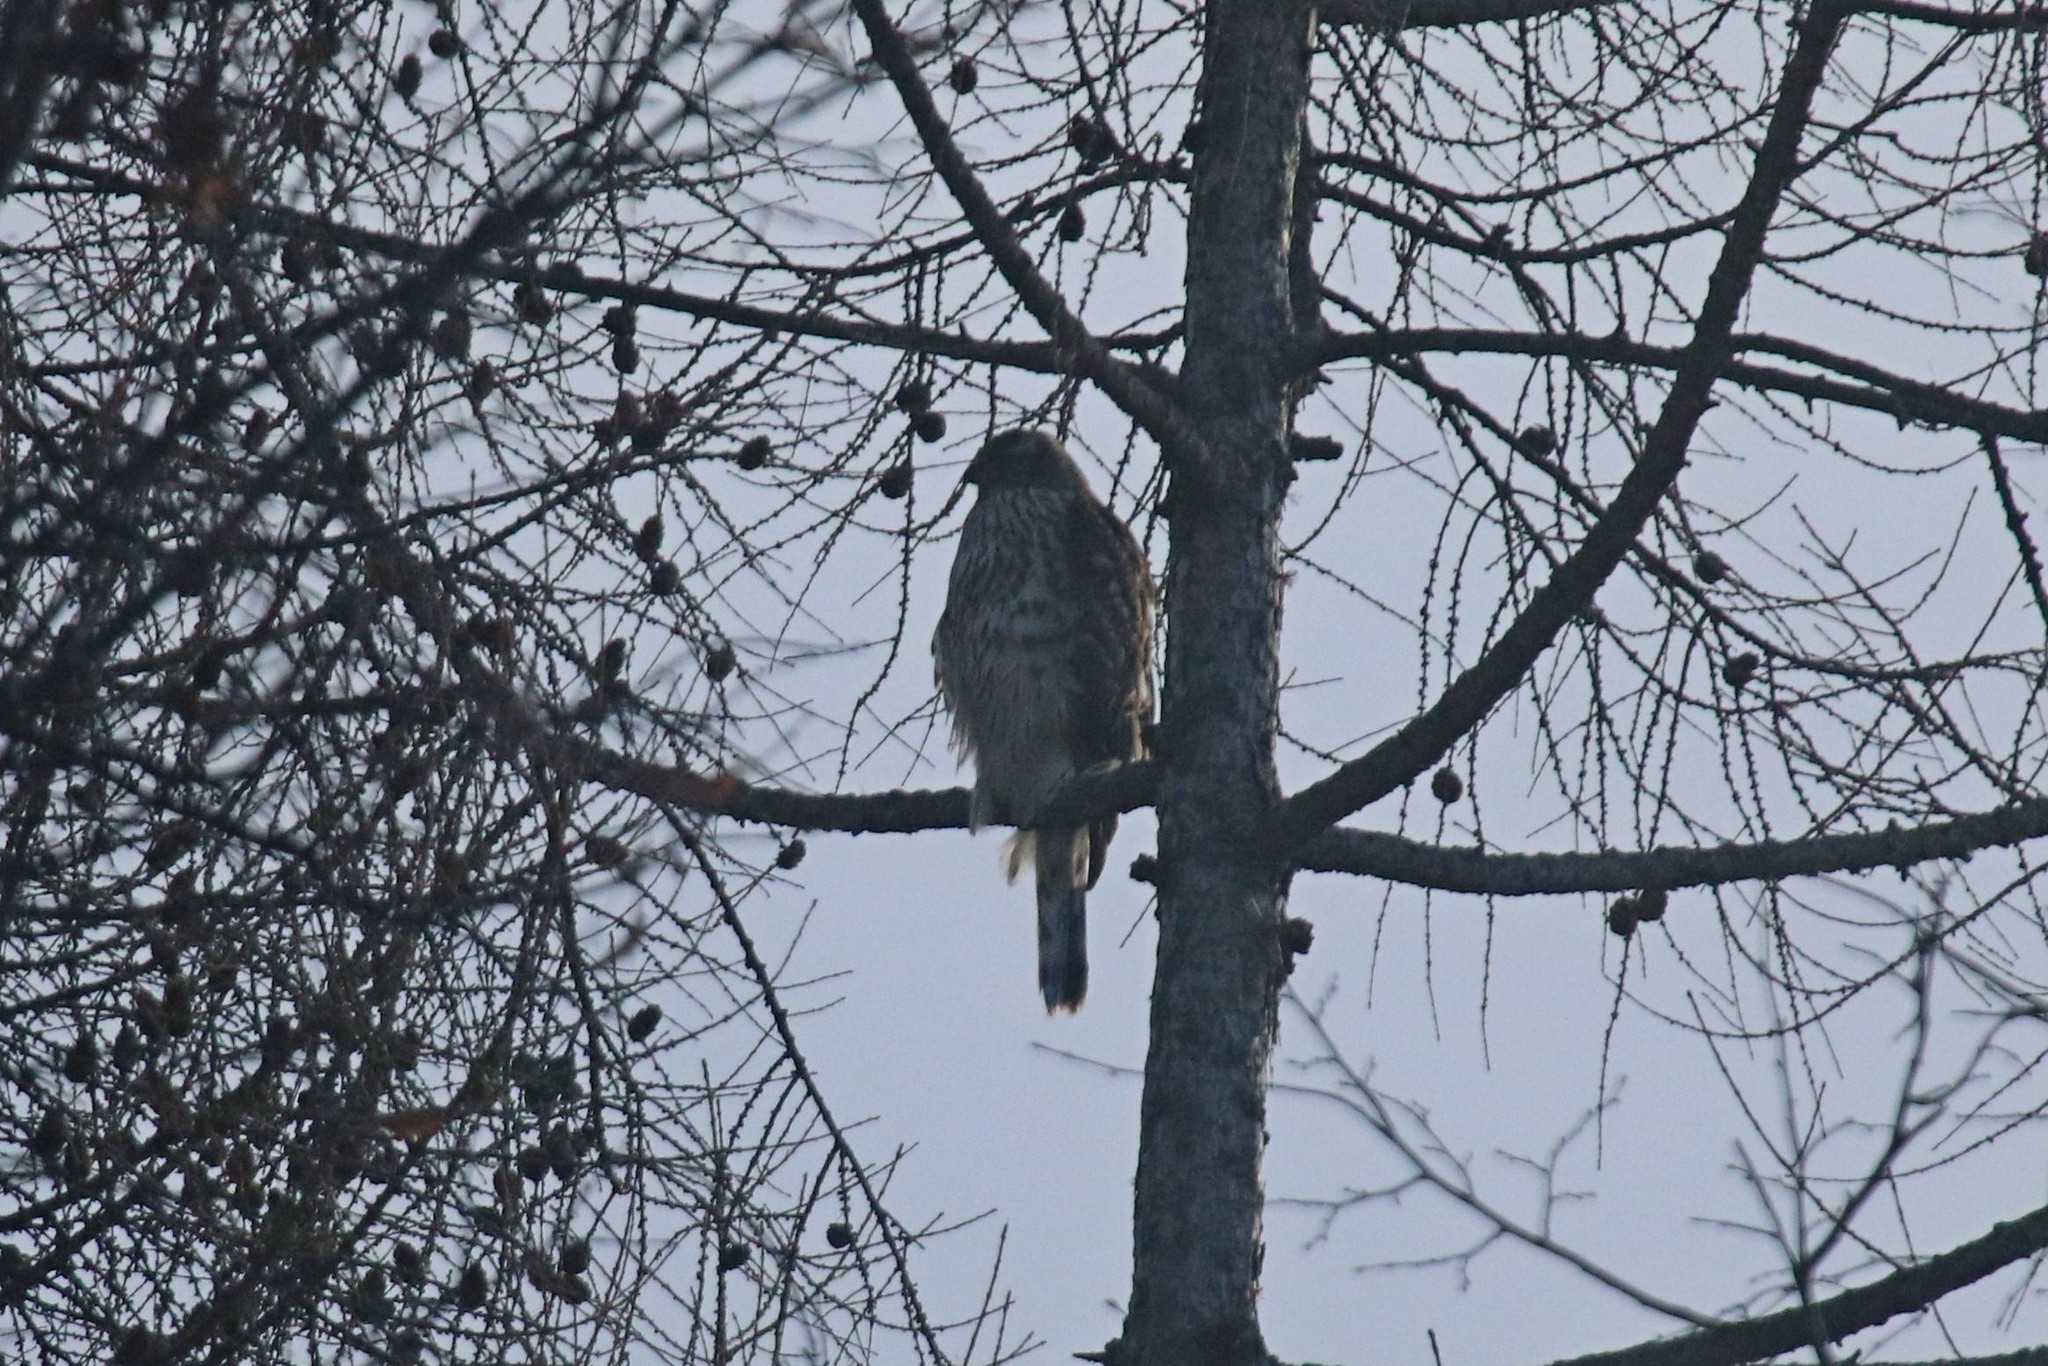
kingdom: Animalia
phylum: Chordata
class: Aves
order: Accipitriformes
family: Accipitridae
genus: Accipiter
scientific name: Accipiter gentilis
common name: Northern goshawk
